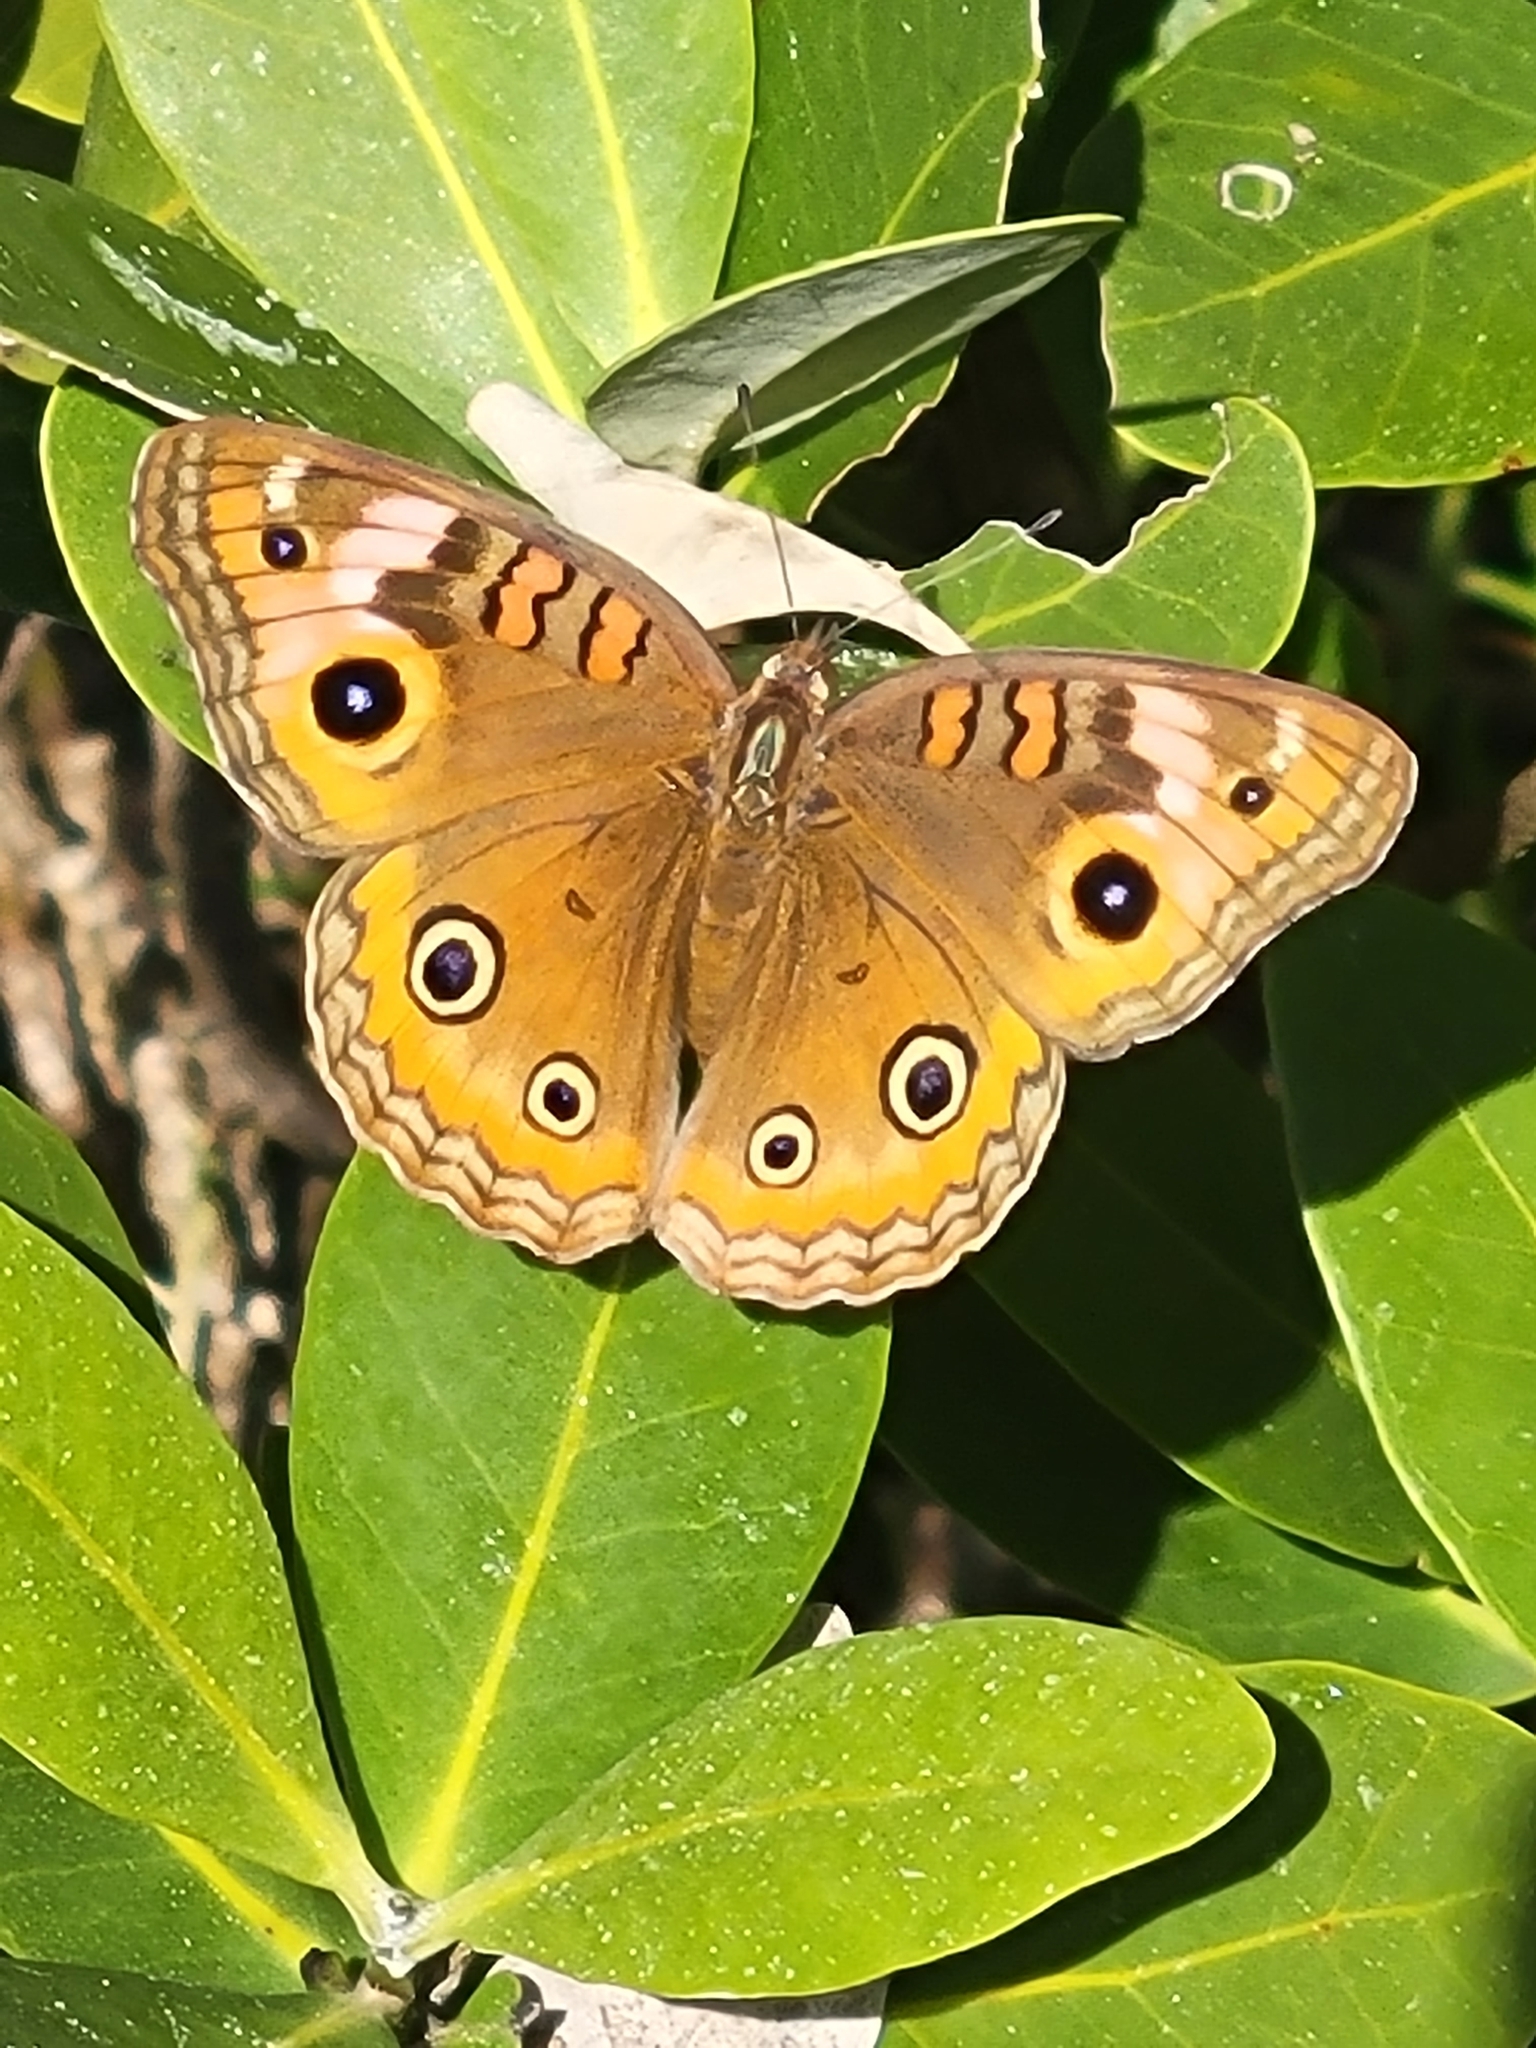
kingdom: Animalia
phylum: Arthropoda
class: Insecta
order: Lepidoptera
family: Nymphalidae
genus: Junonia
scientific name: Junonia neildi
